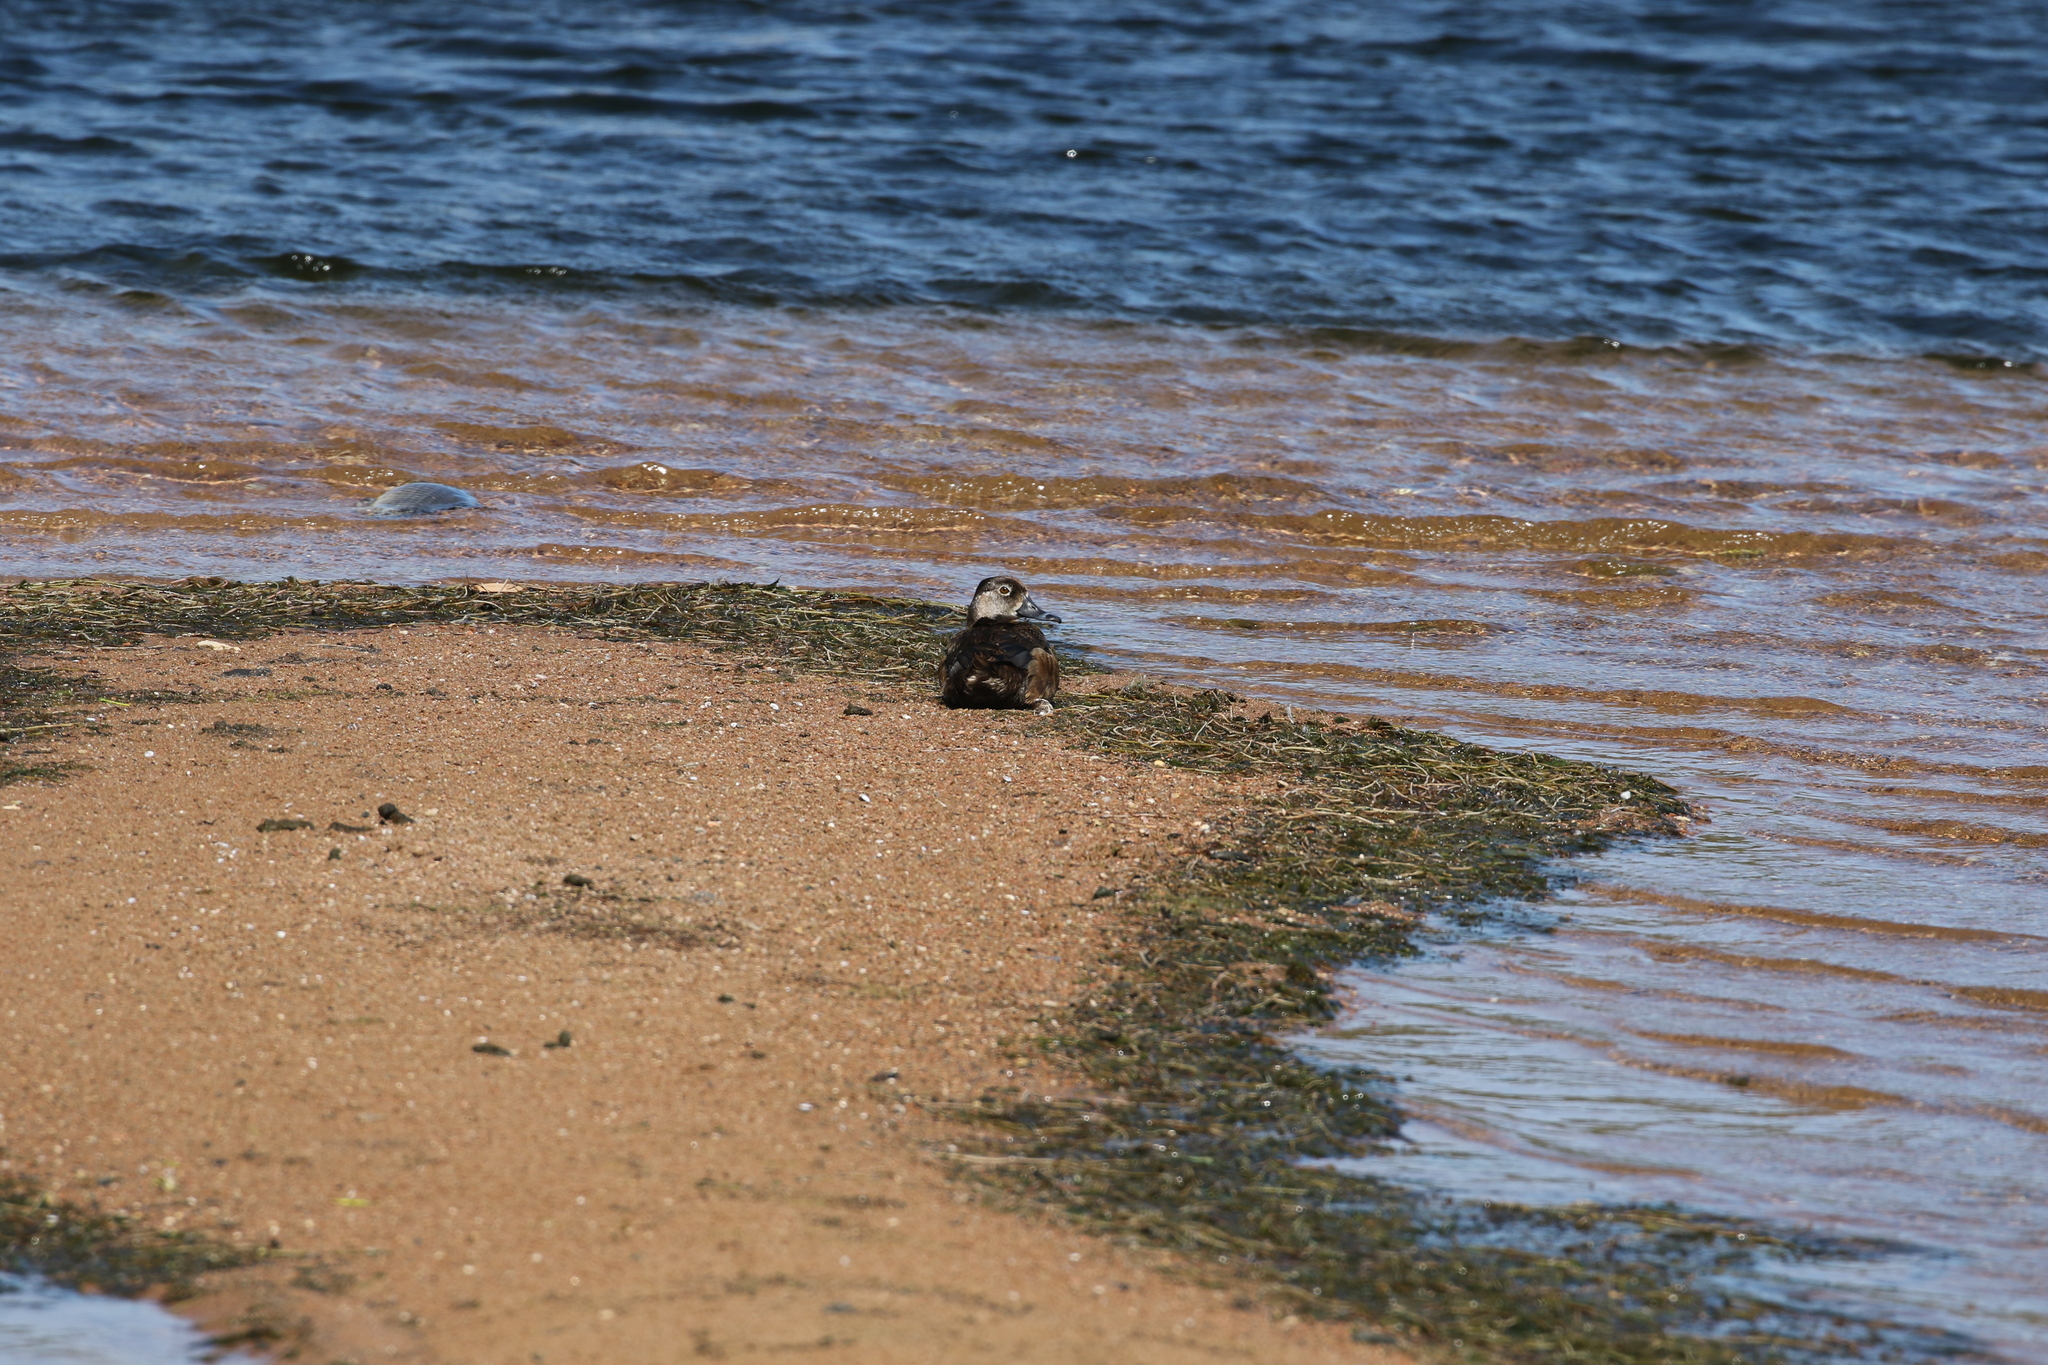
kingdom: Animalia
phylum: Chordata
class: Aves
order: Anseriformes
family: Anatidae
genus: Aythya
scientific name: Aythya collaris
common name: Ring-necked duck
